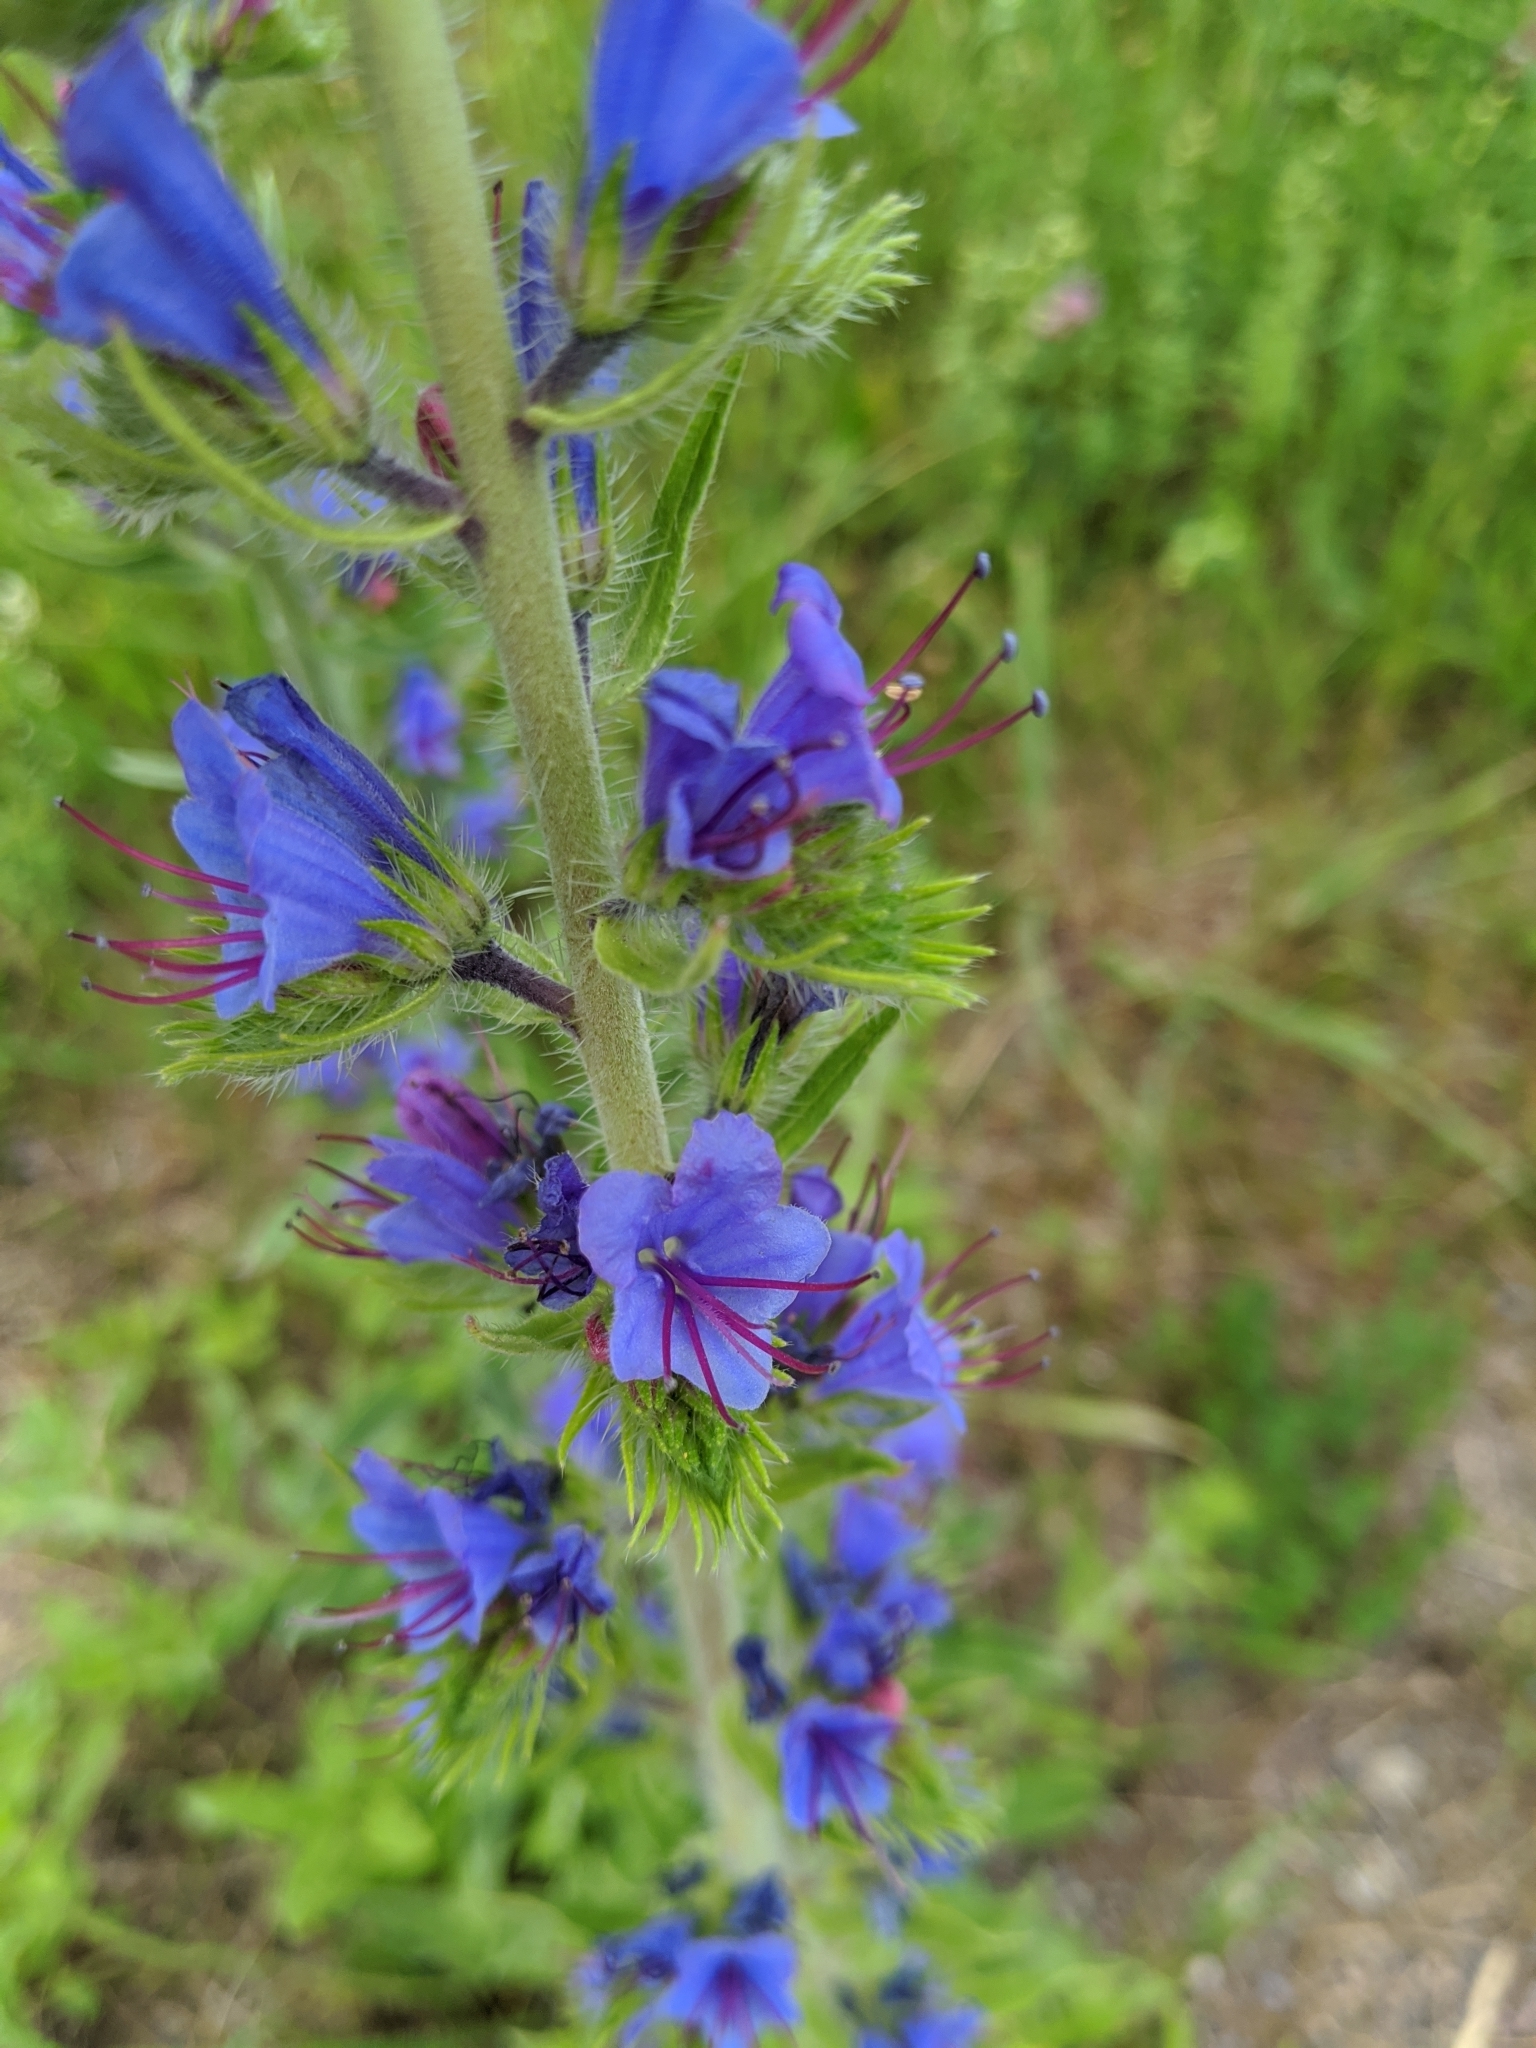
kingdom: Plantae
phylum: Tracheophyta
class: Magnoliopsida
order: Boraginales
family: Boraginaceae
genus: Echium
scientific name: Echium vulgare
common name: Common viper's bugloss
